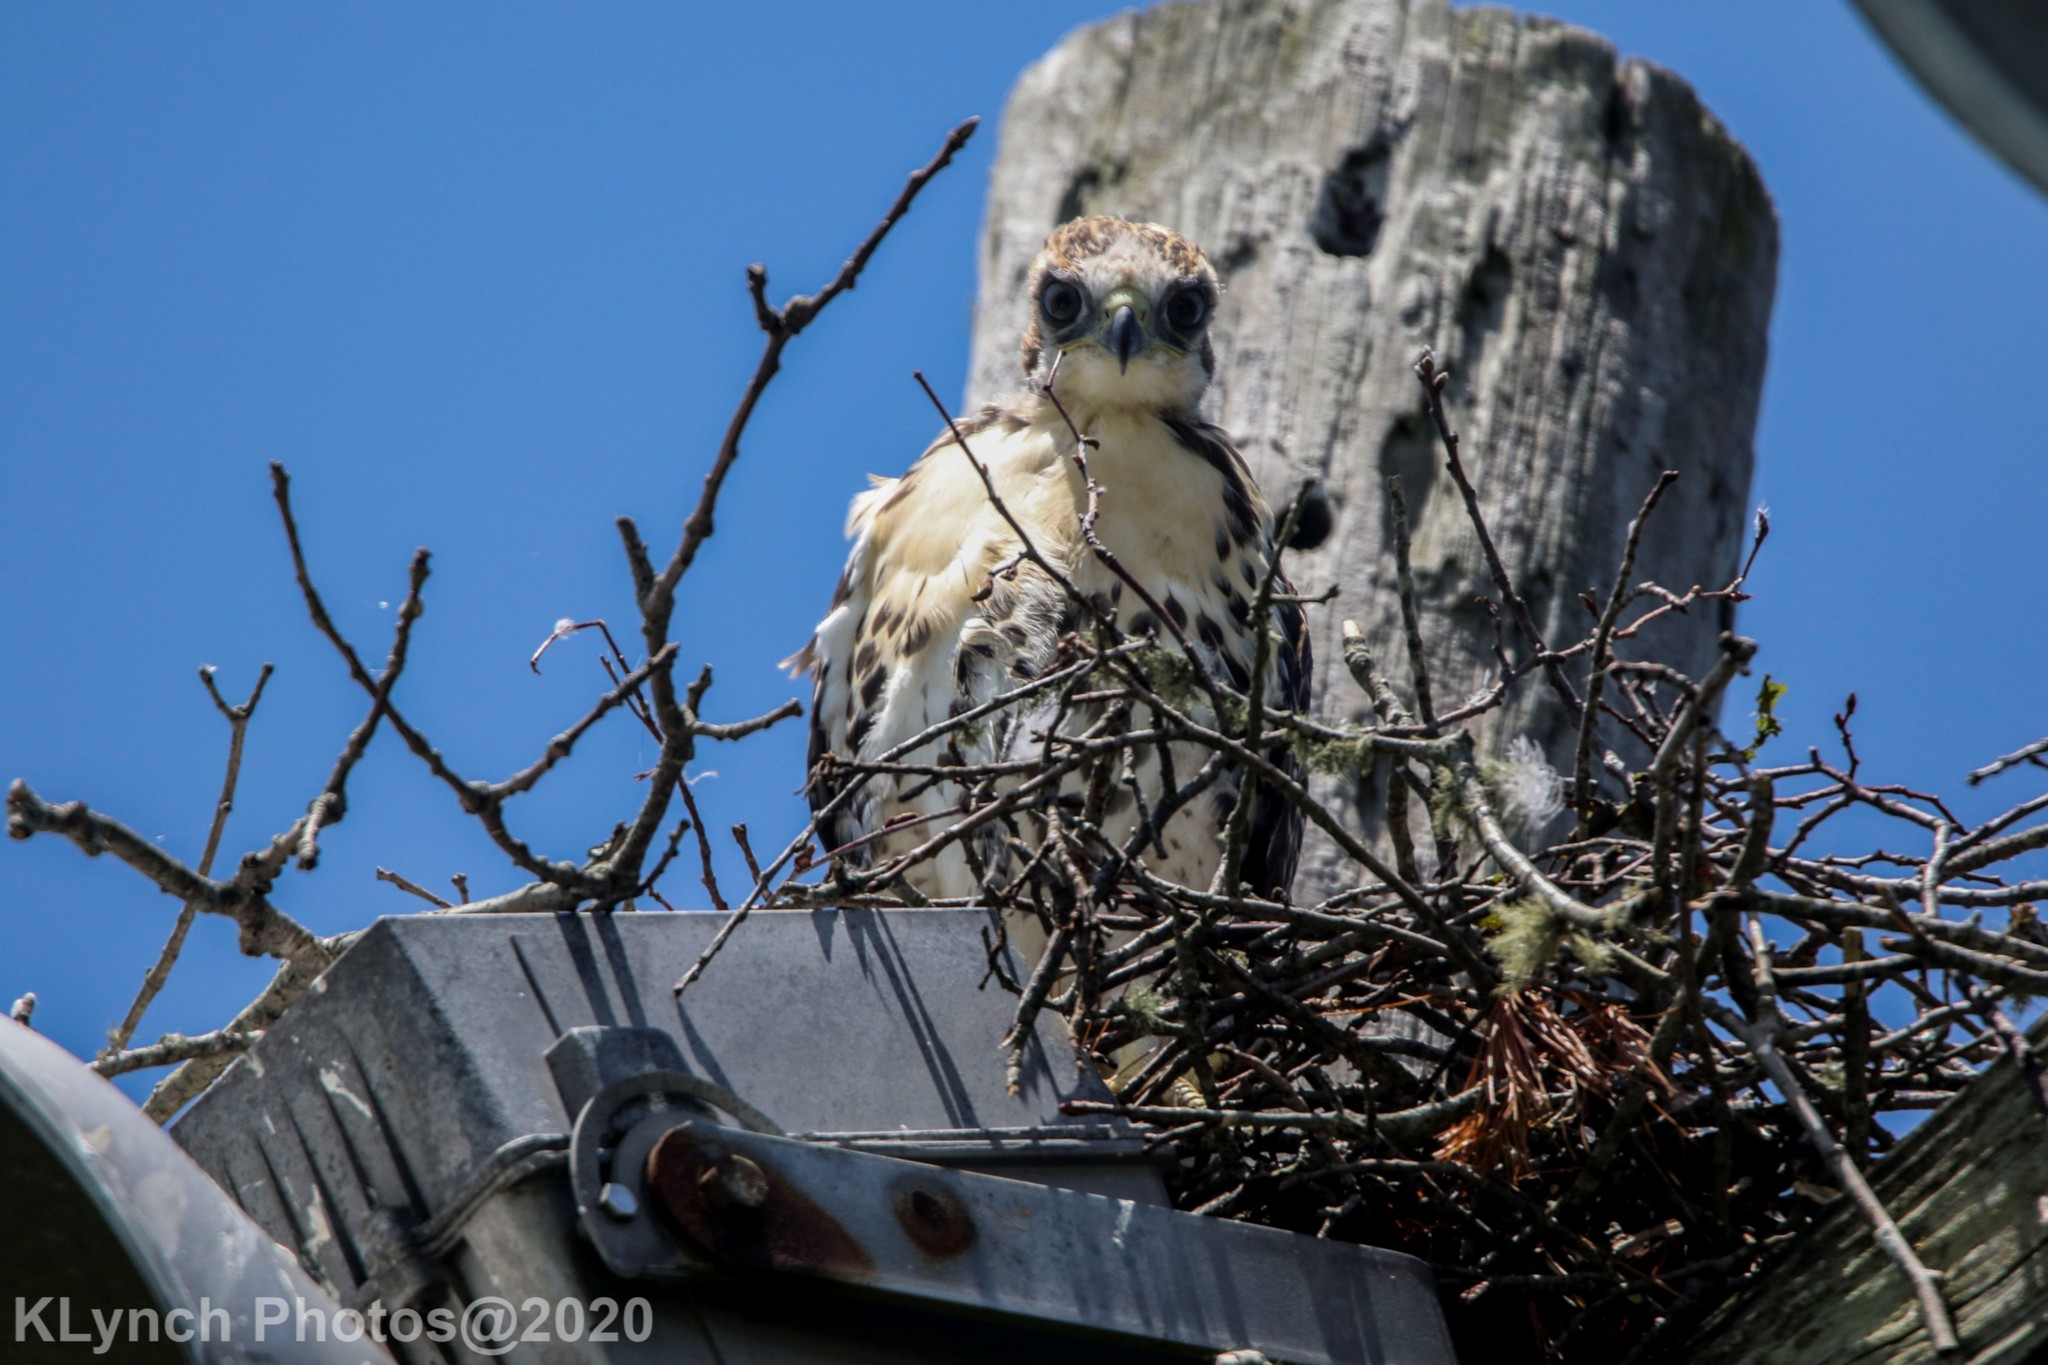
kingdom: Animalia
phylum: Chordata
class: Aves
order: Accipitriformes
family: Accipitridae
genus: Buteo
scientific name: Buteo jamaicensis
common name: Red-tailed hawk
